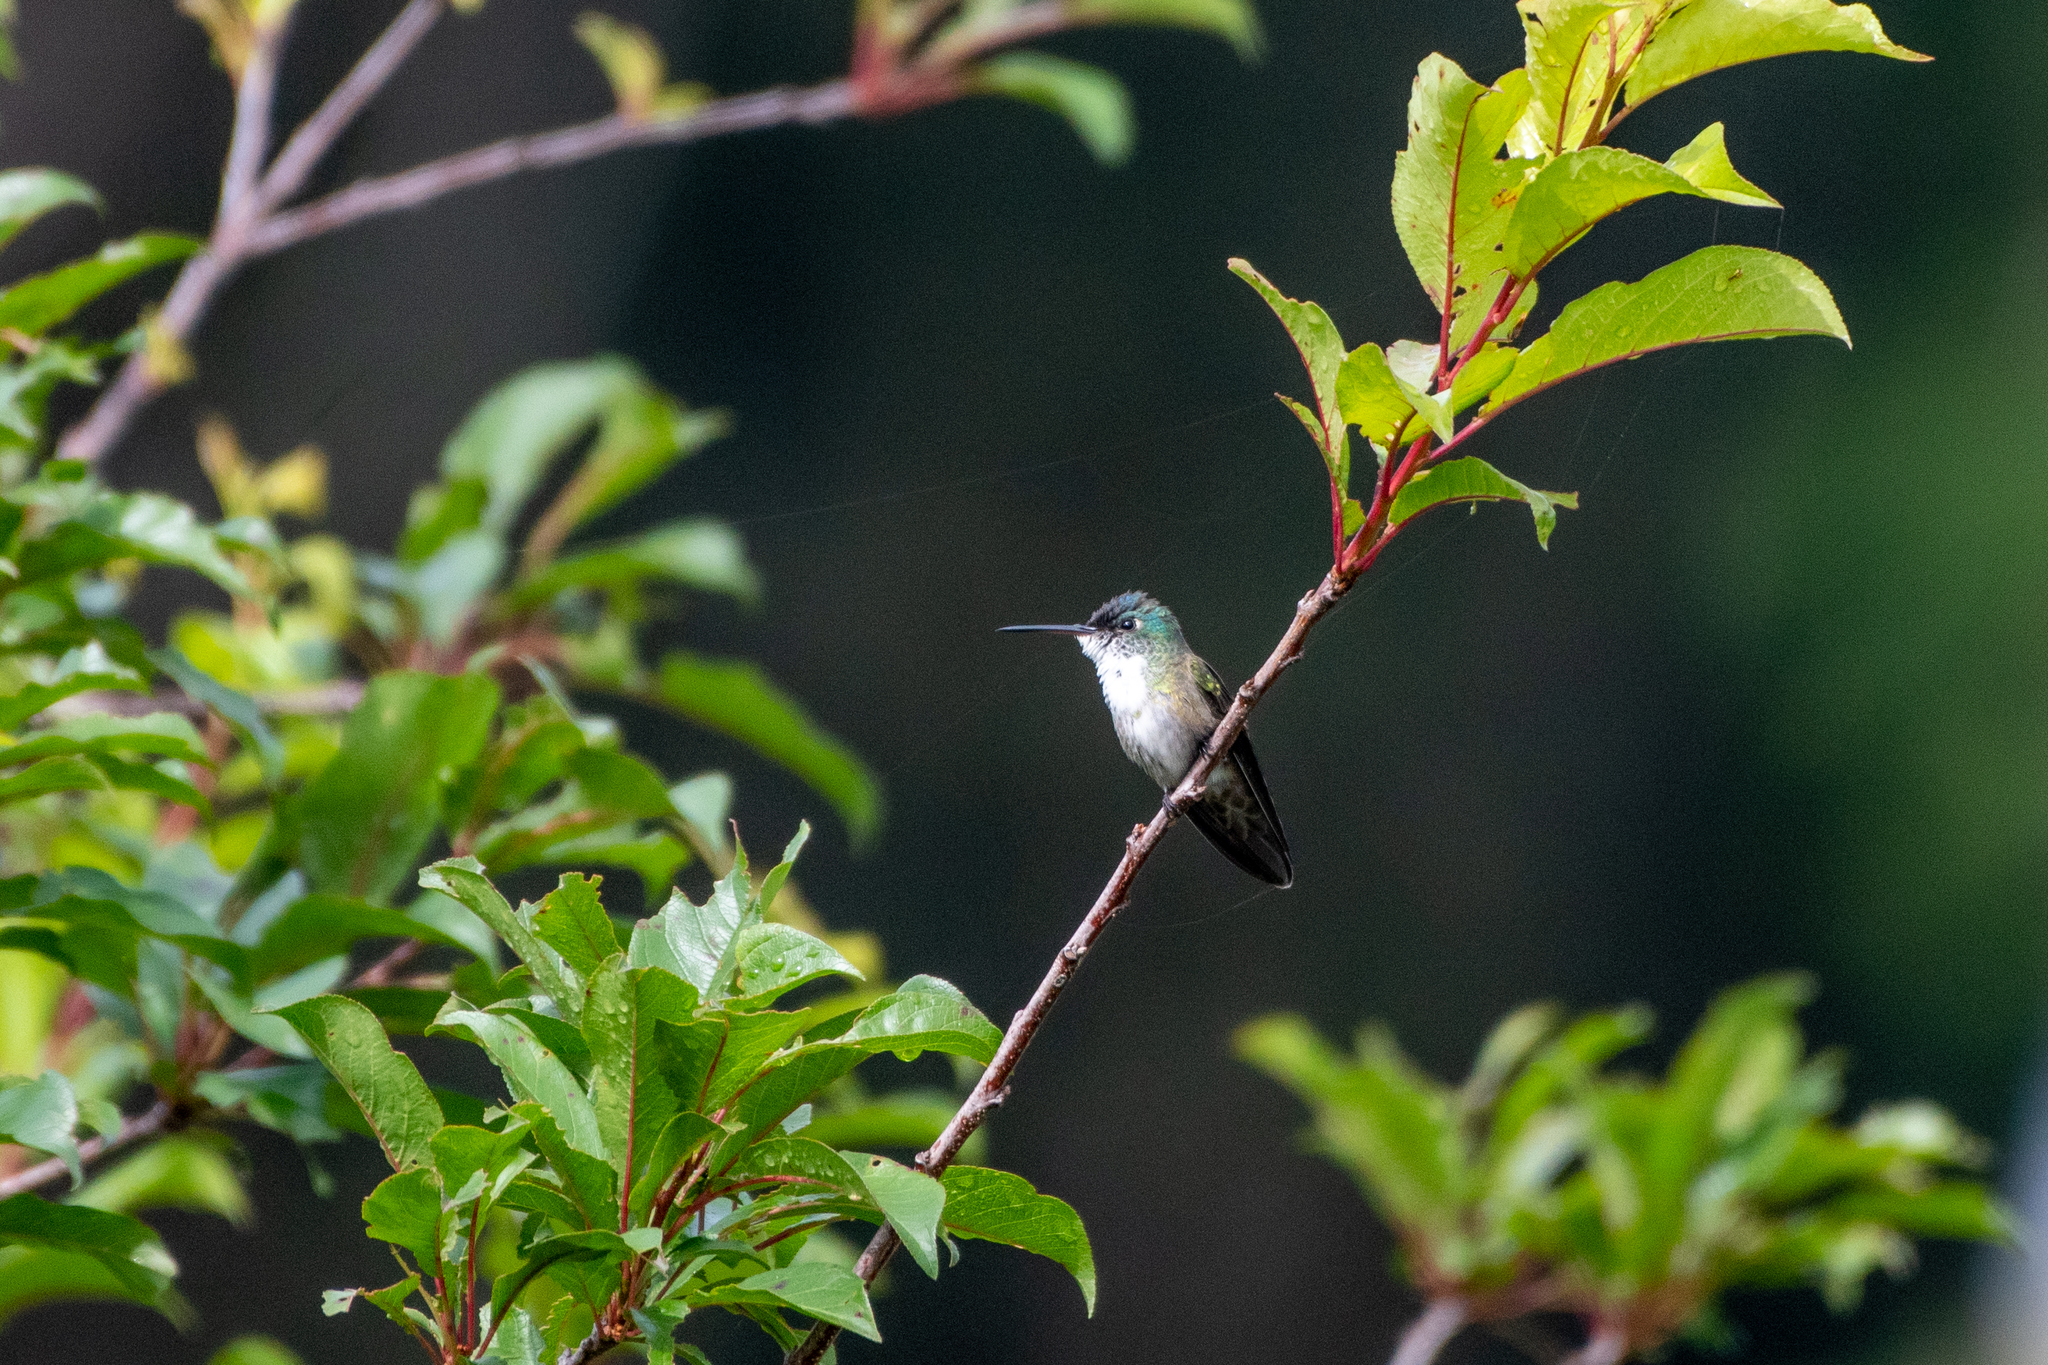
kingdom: Animalia
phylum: Chordata
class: Aves
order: Apodiformes
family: Trochilidae
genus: Saucerottia
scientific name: Saucerottia cyanocephala
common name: Azure-crowned hummingbird
